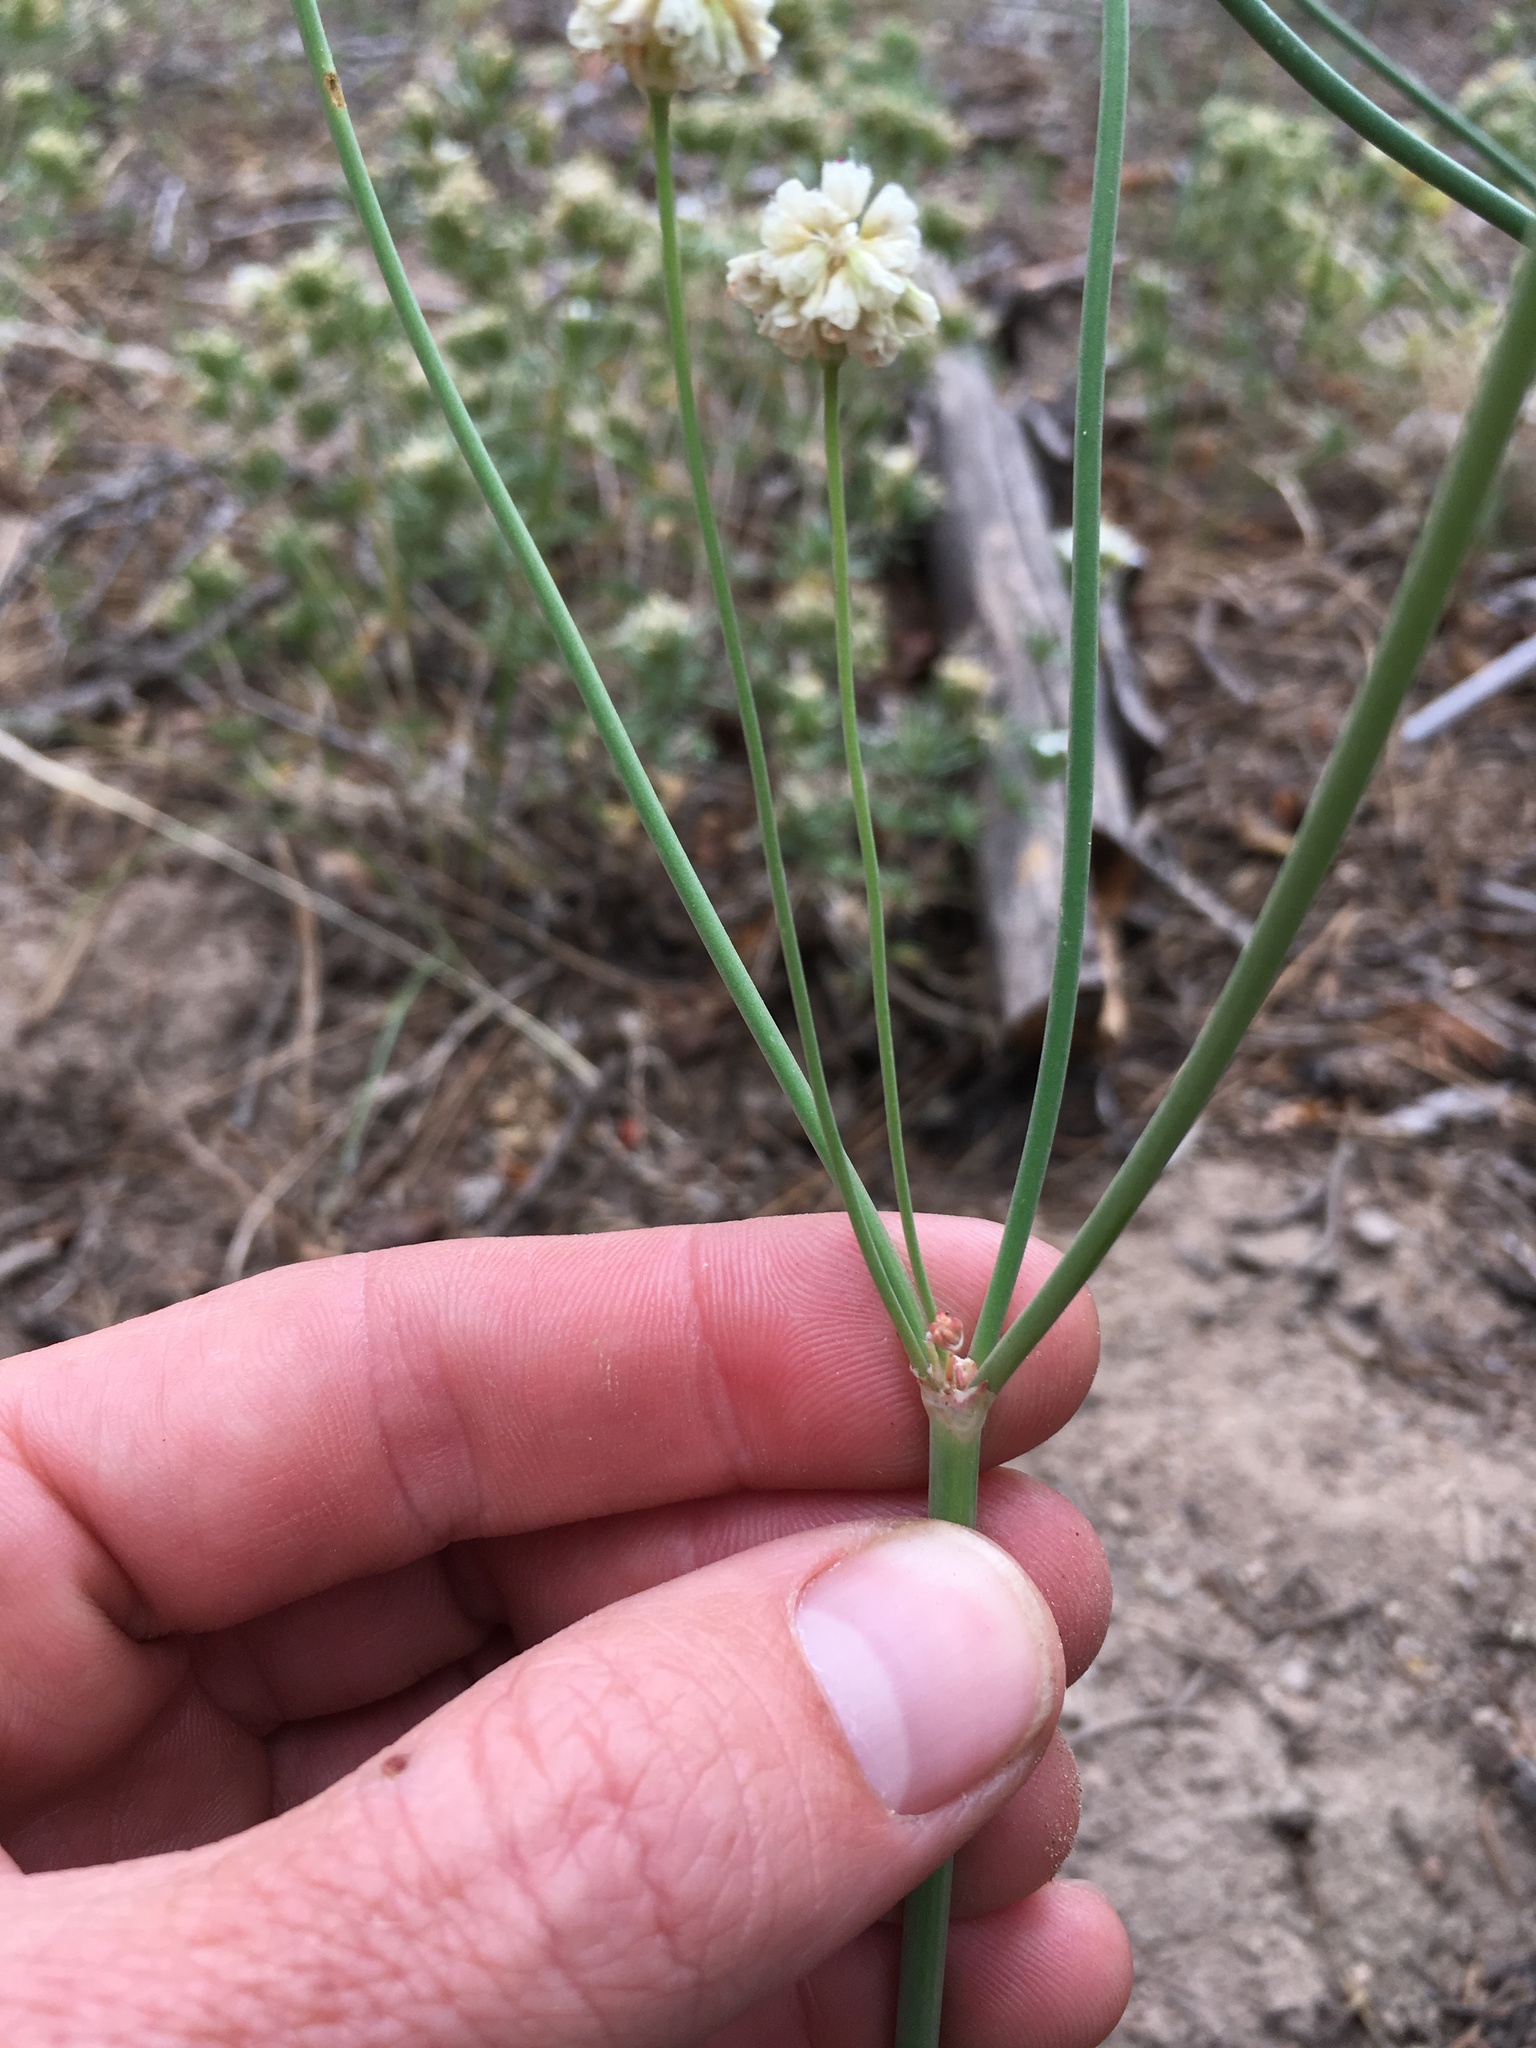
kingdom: Plantae
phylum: Tracheophyta
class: Magnoliopsida
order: Caryophyllales
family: Polygonaceae
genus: Eriogonum
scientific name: Eriogonum nudum
